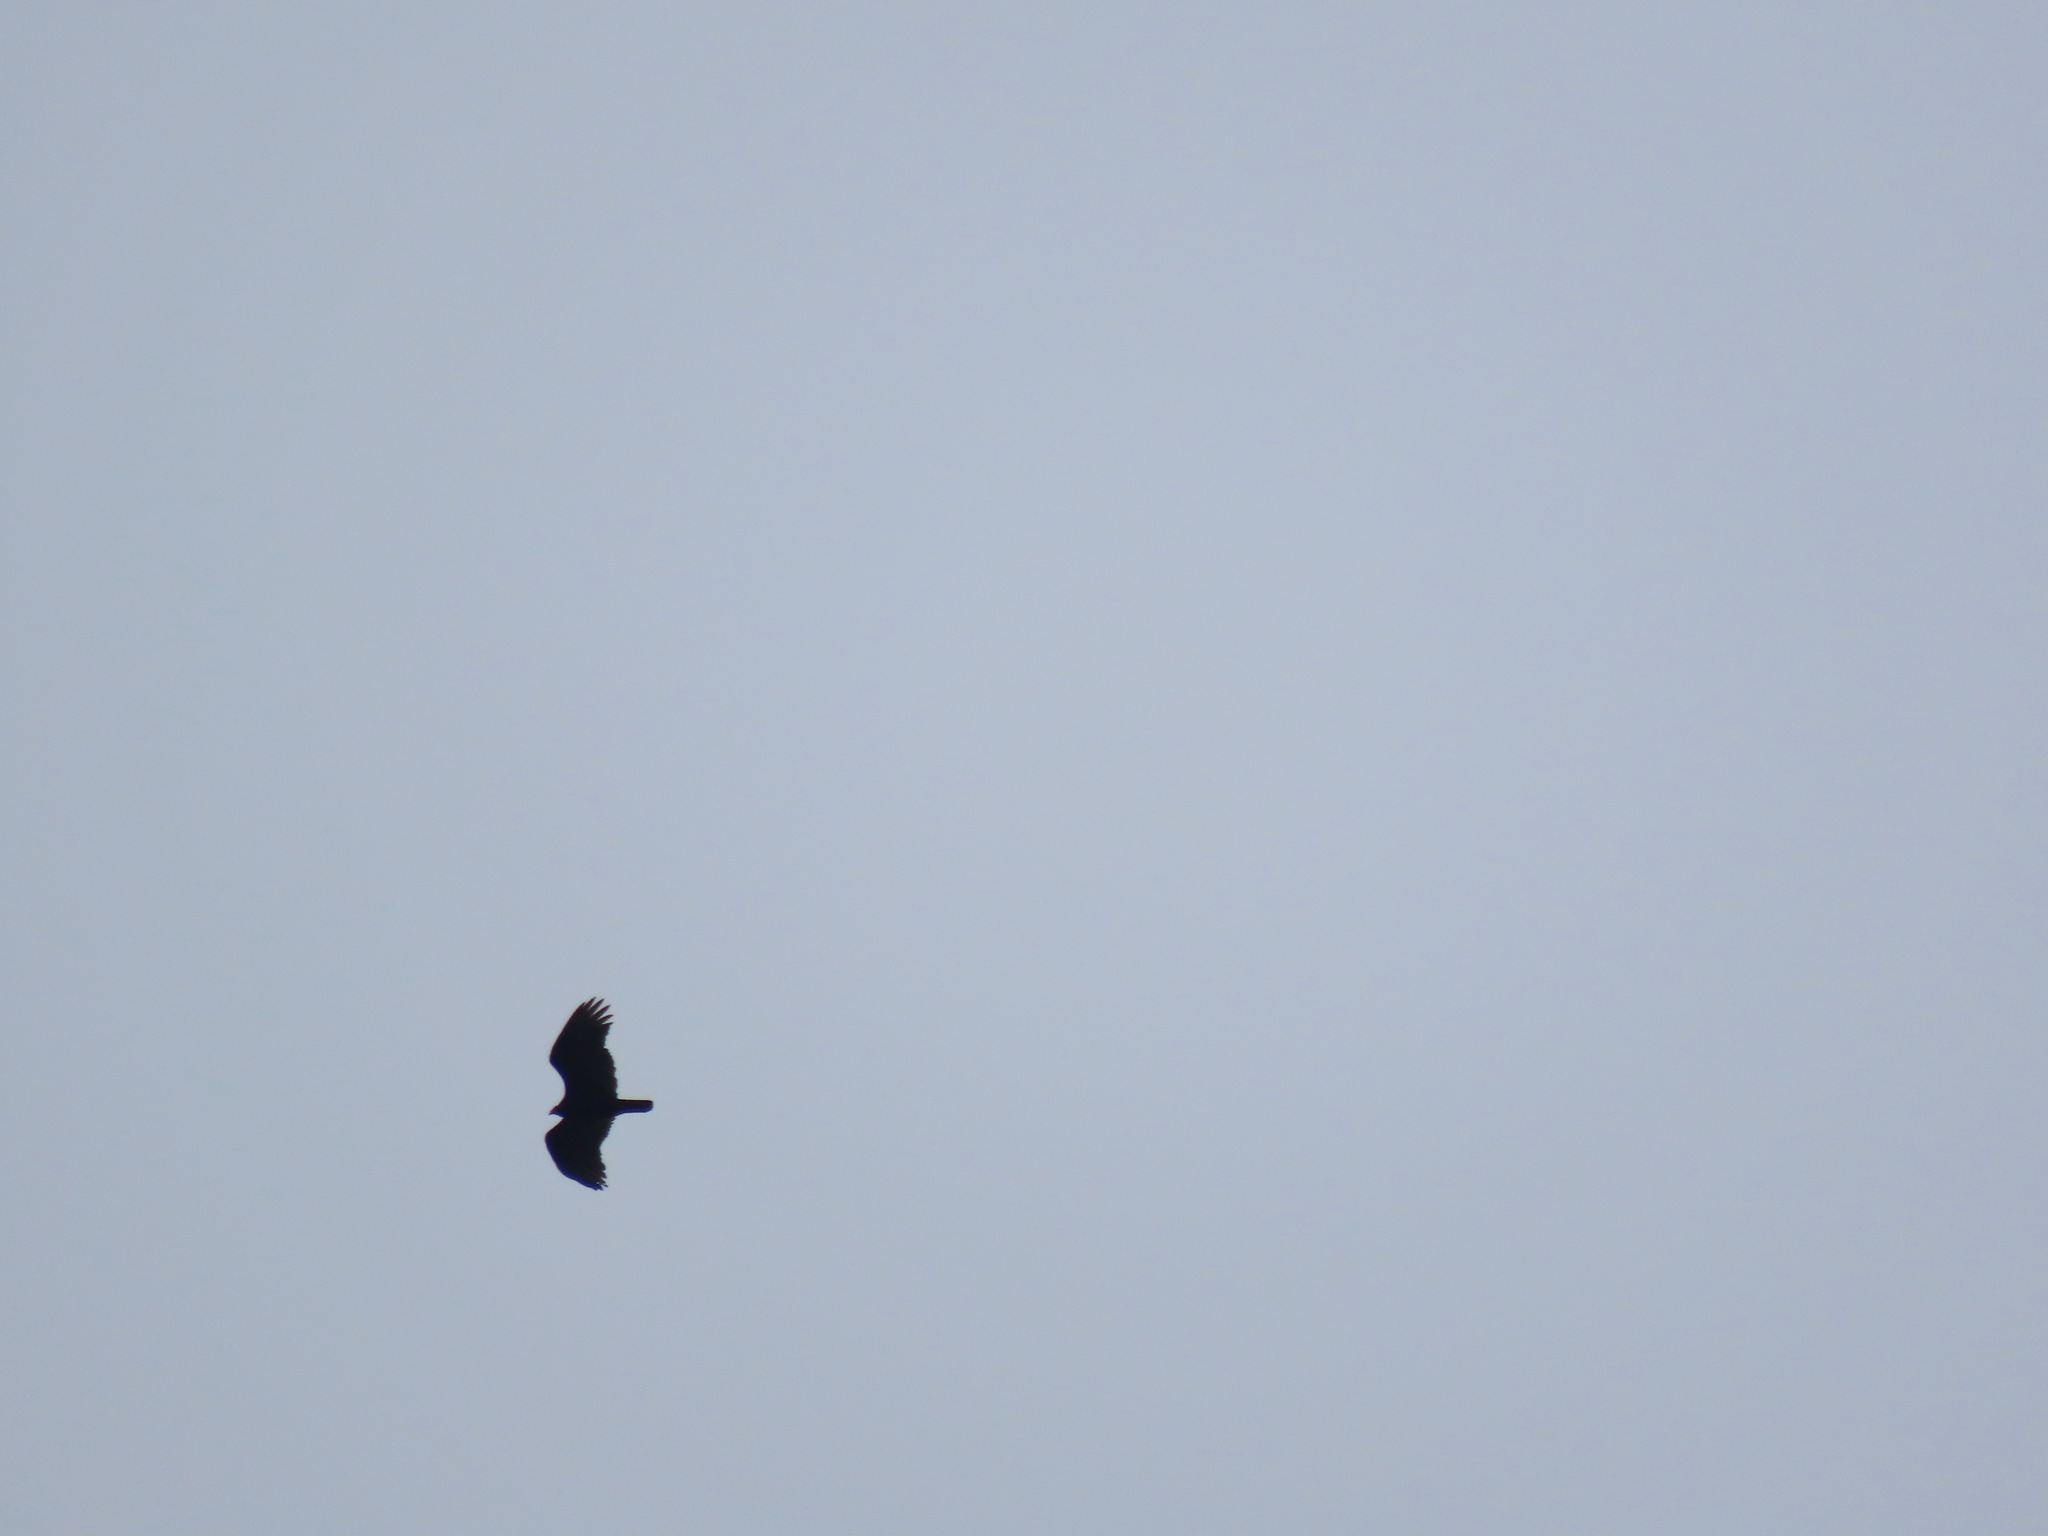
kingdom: Animalia
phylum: Chordata
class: Aves
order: Accipitriformes
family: Cathartidae
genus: Cathartes
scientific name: Cathartes aura
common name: Turkey vulture
